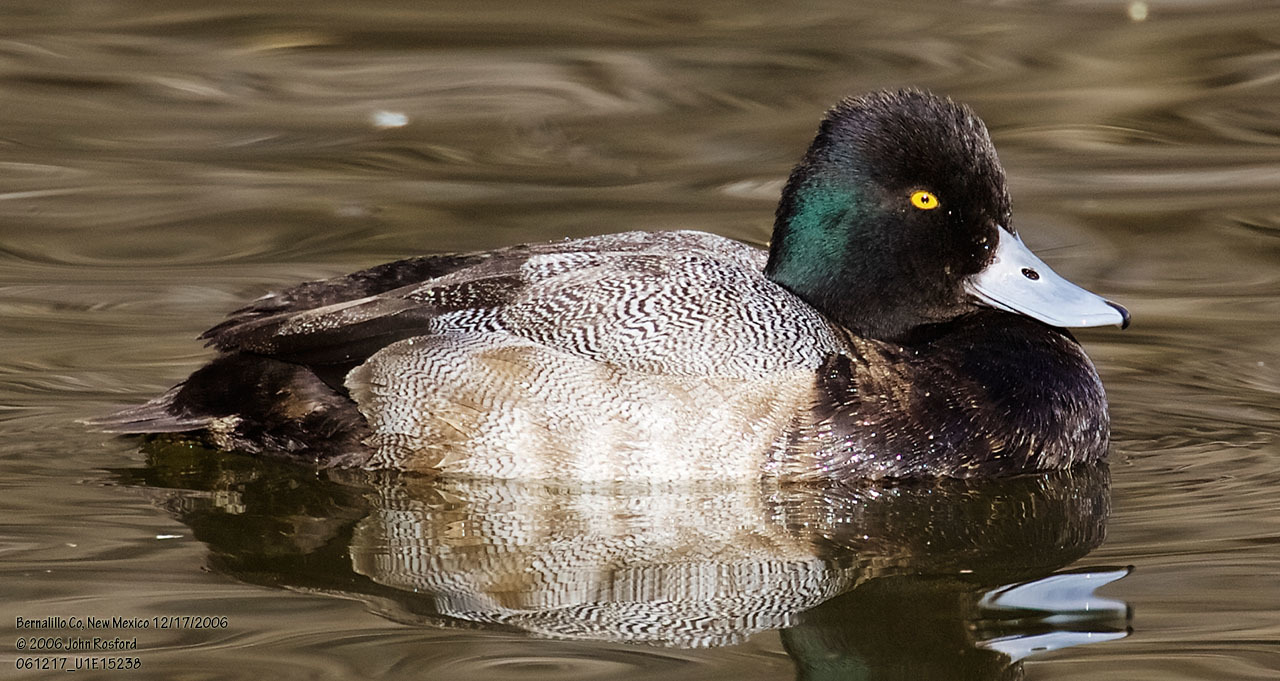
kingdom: Animalia
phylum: Chordata
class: Aves
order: Anseriformes
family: Anatidae
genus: Aythya
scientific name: Aythya affinis
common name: Lesser scaup
